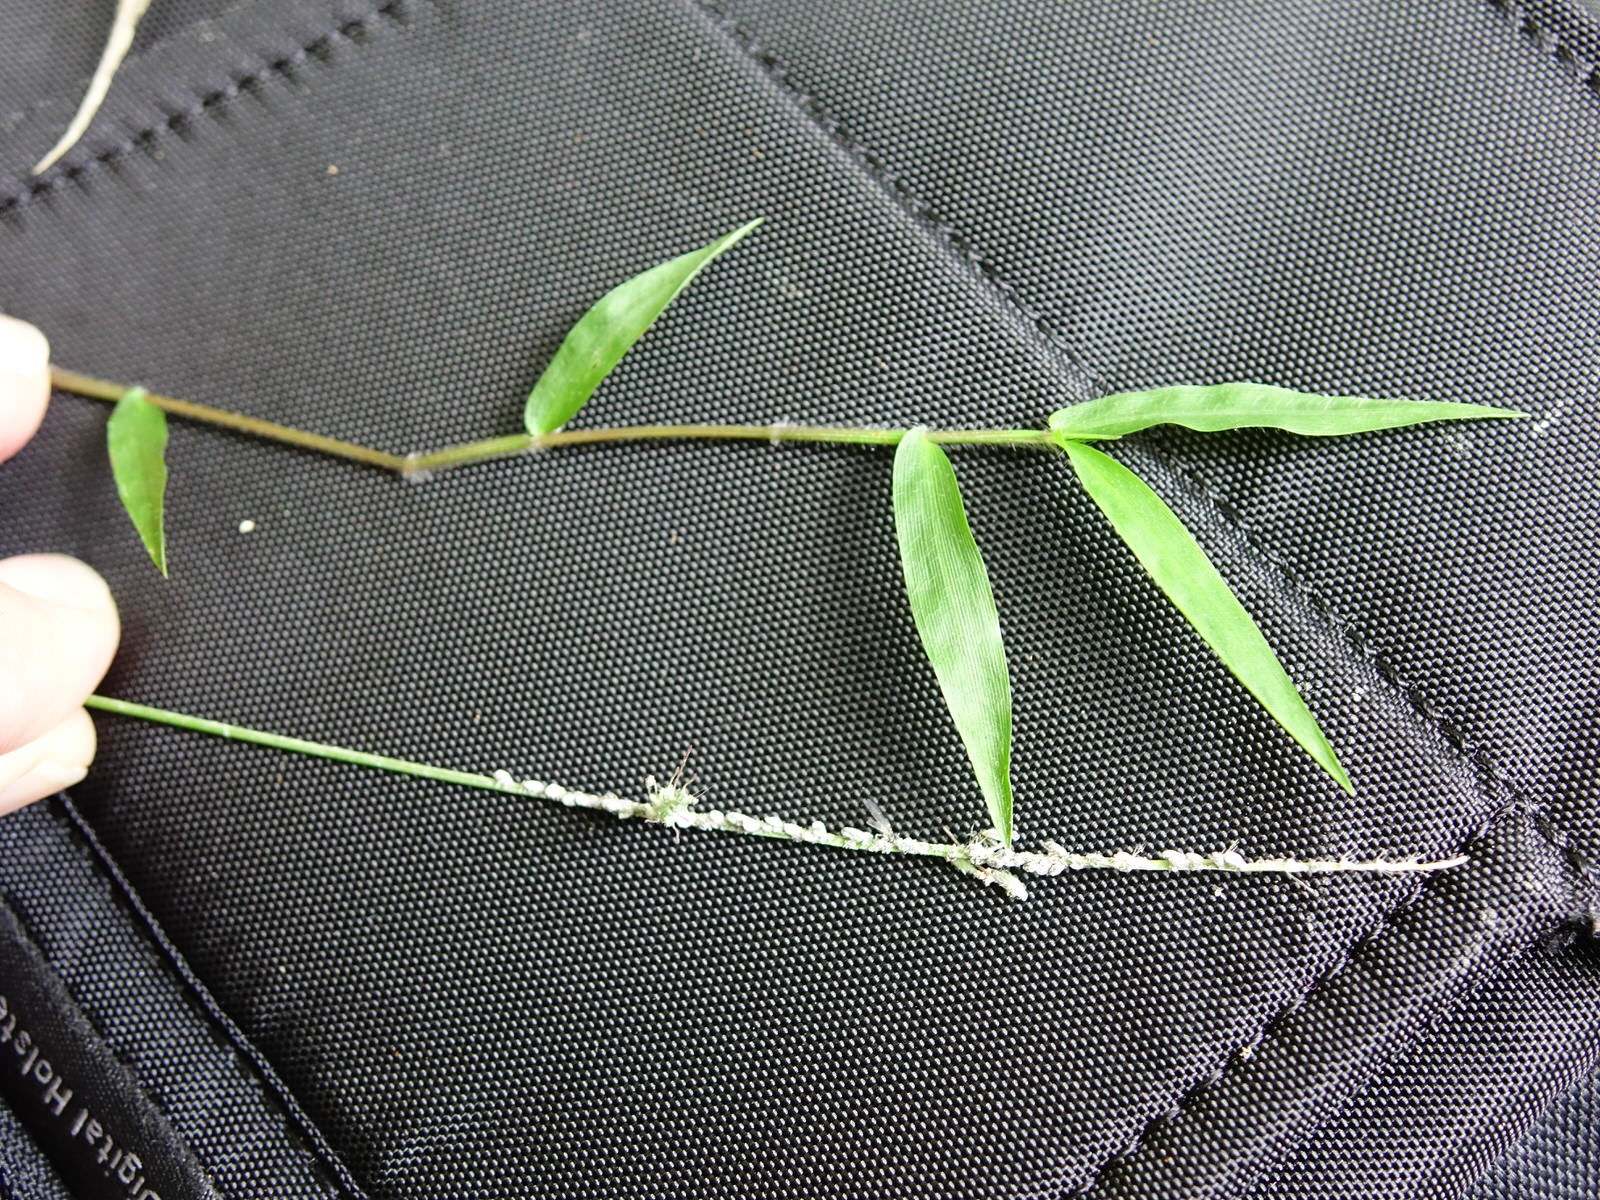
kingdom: Plantae
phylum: Tracheophyta
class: Liliopsida
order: Poales
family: Poaceae
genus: Oplismenus
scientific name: Oplismenus hirtellus
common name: Basketgrass
